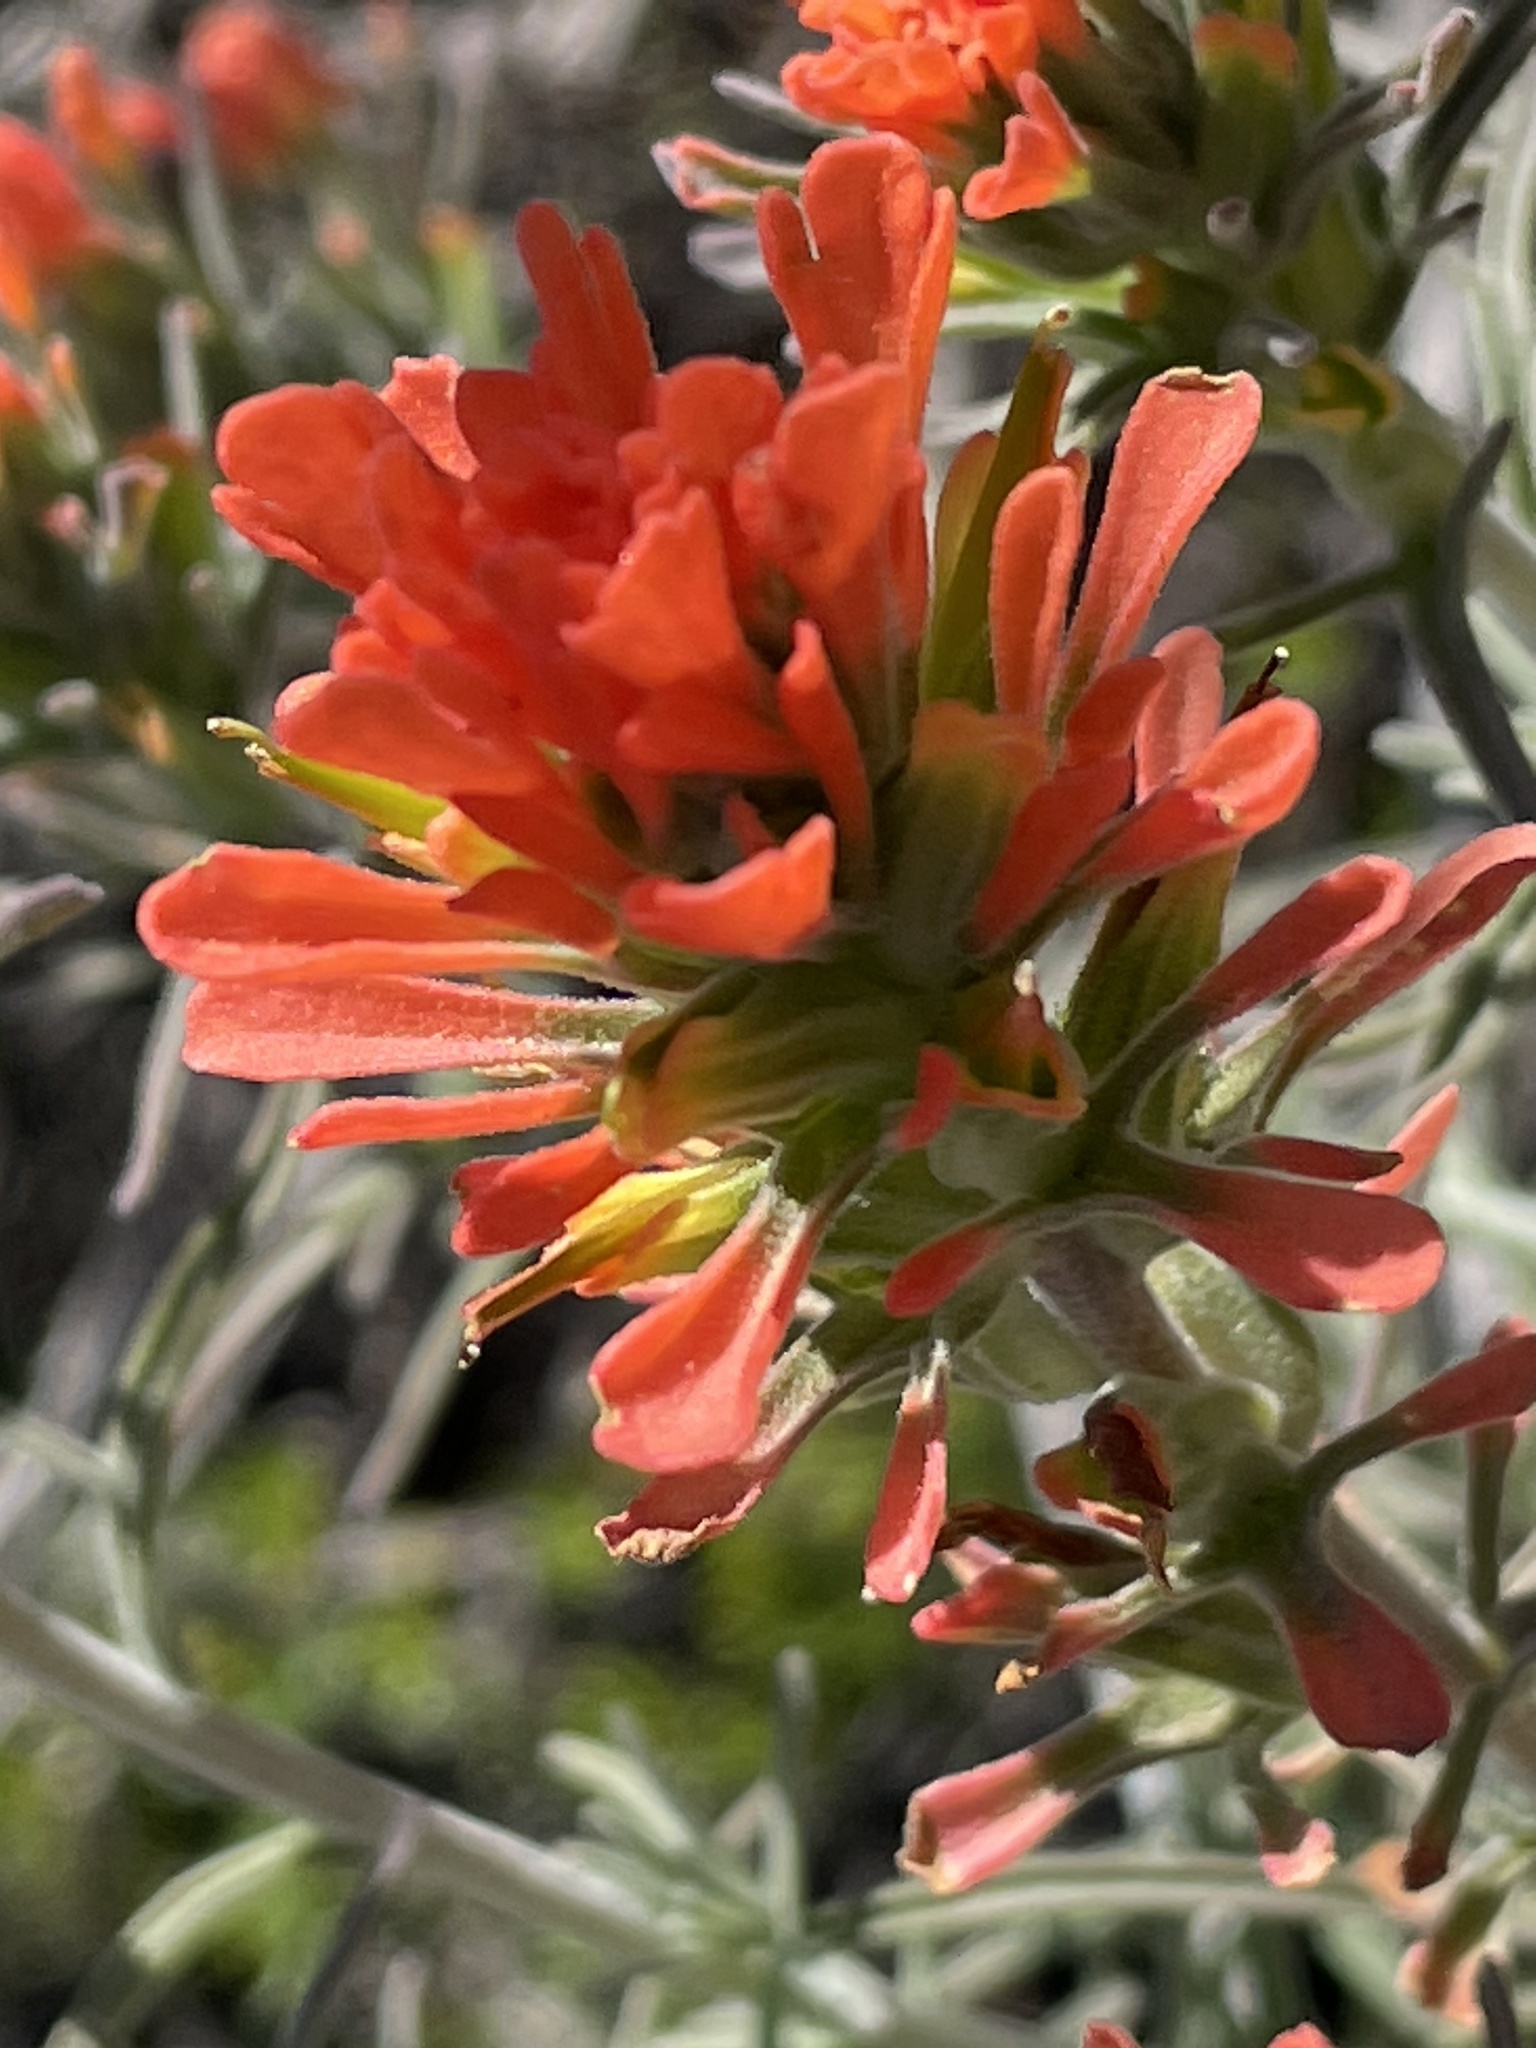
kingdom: Plantae
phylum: Tracheophyta
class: Magnoliopsida
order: Lamiales
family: Orobanchaceae
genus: Castilleja
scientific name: Castilleja foliolosa
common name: Woolly indian paintbrush
